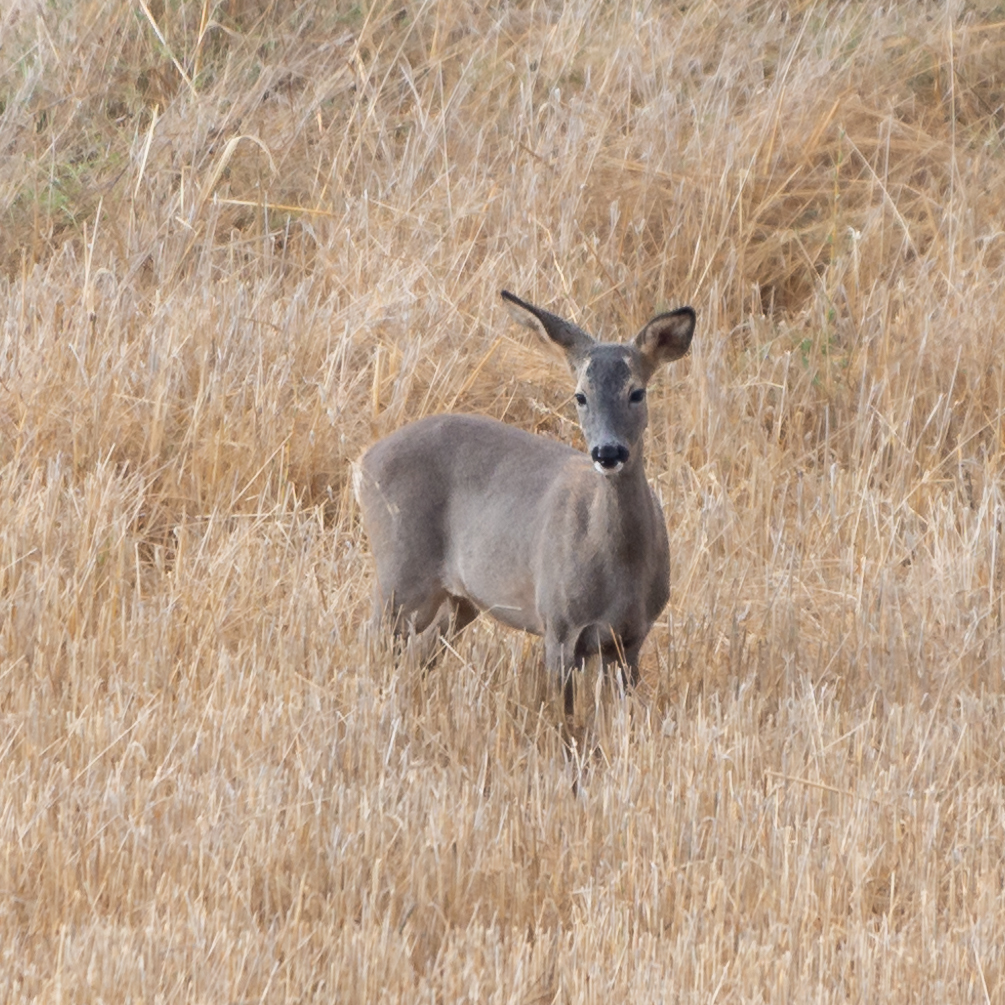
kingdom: Animalia
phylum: Chordata
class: Mammalia
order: Artiodactyla
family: Cervidae
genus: Capreolus
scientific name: Capreolus capreolus
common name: Western roe deer
